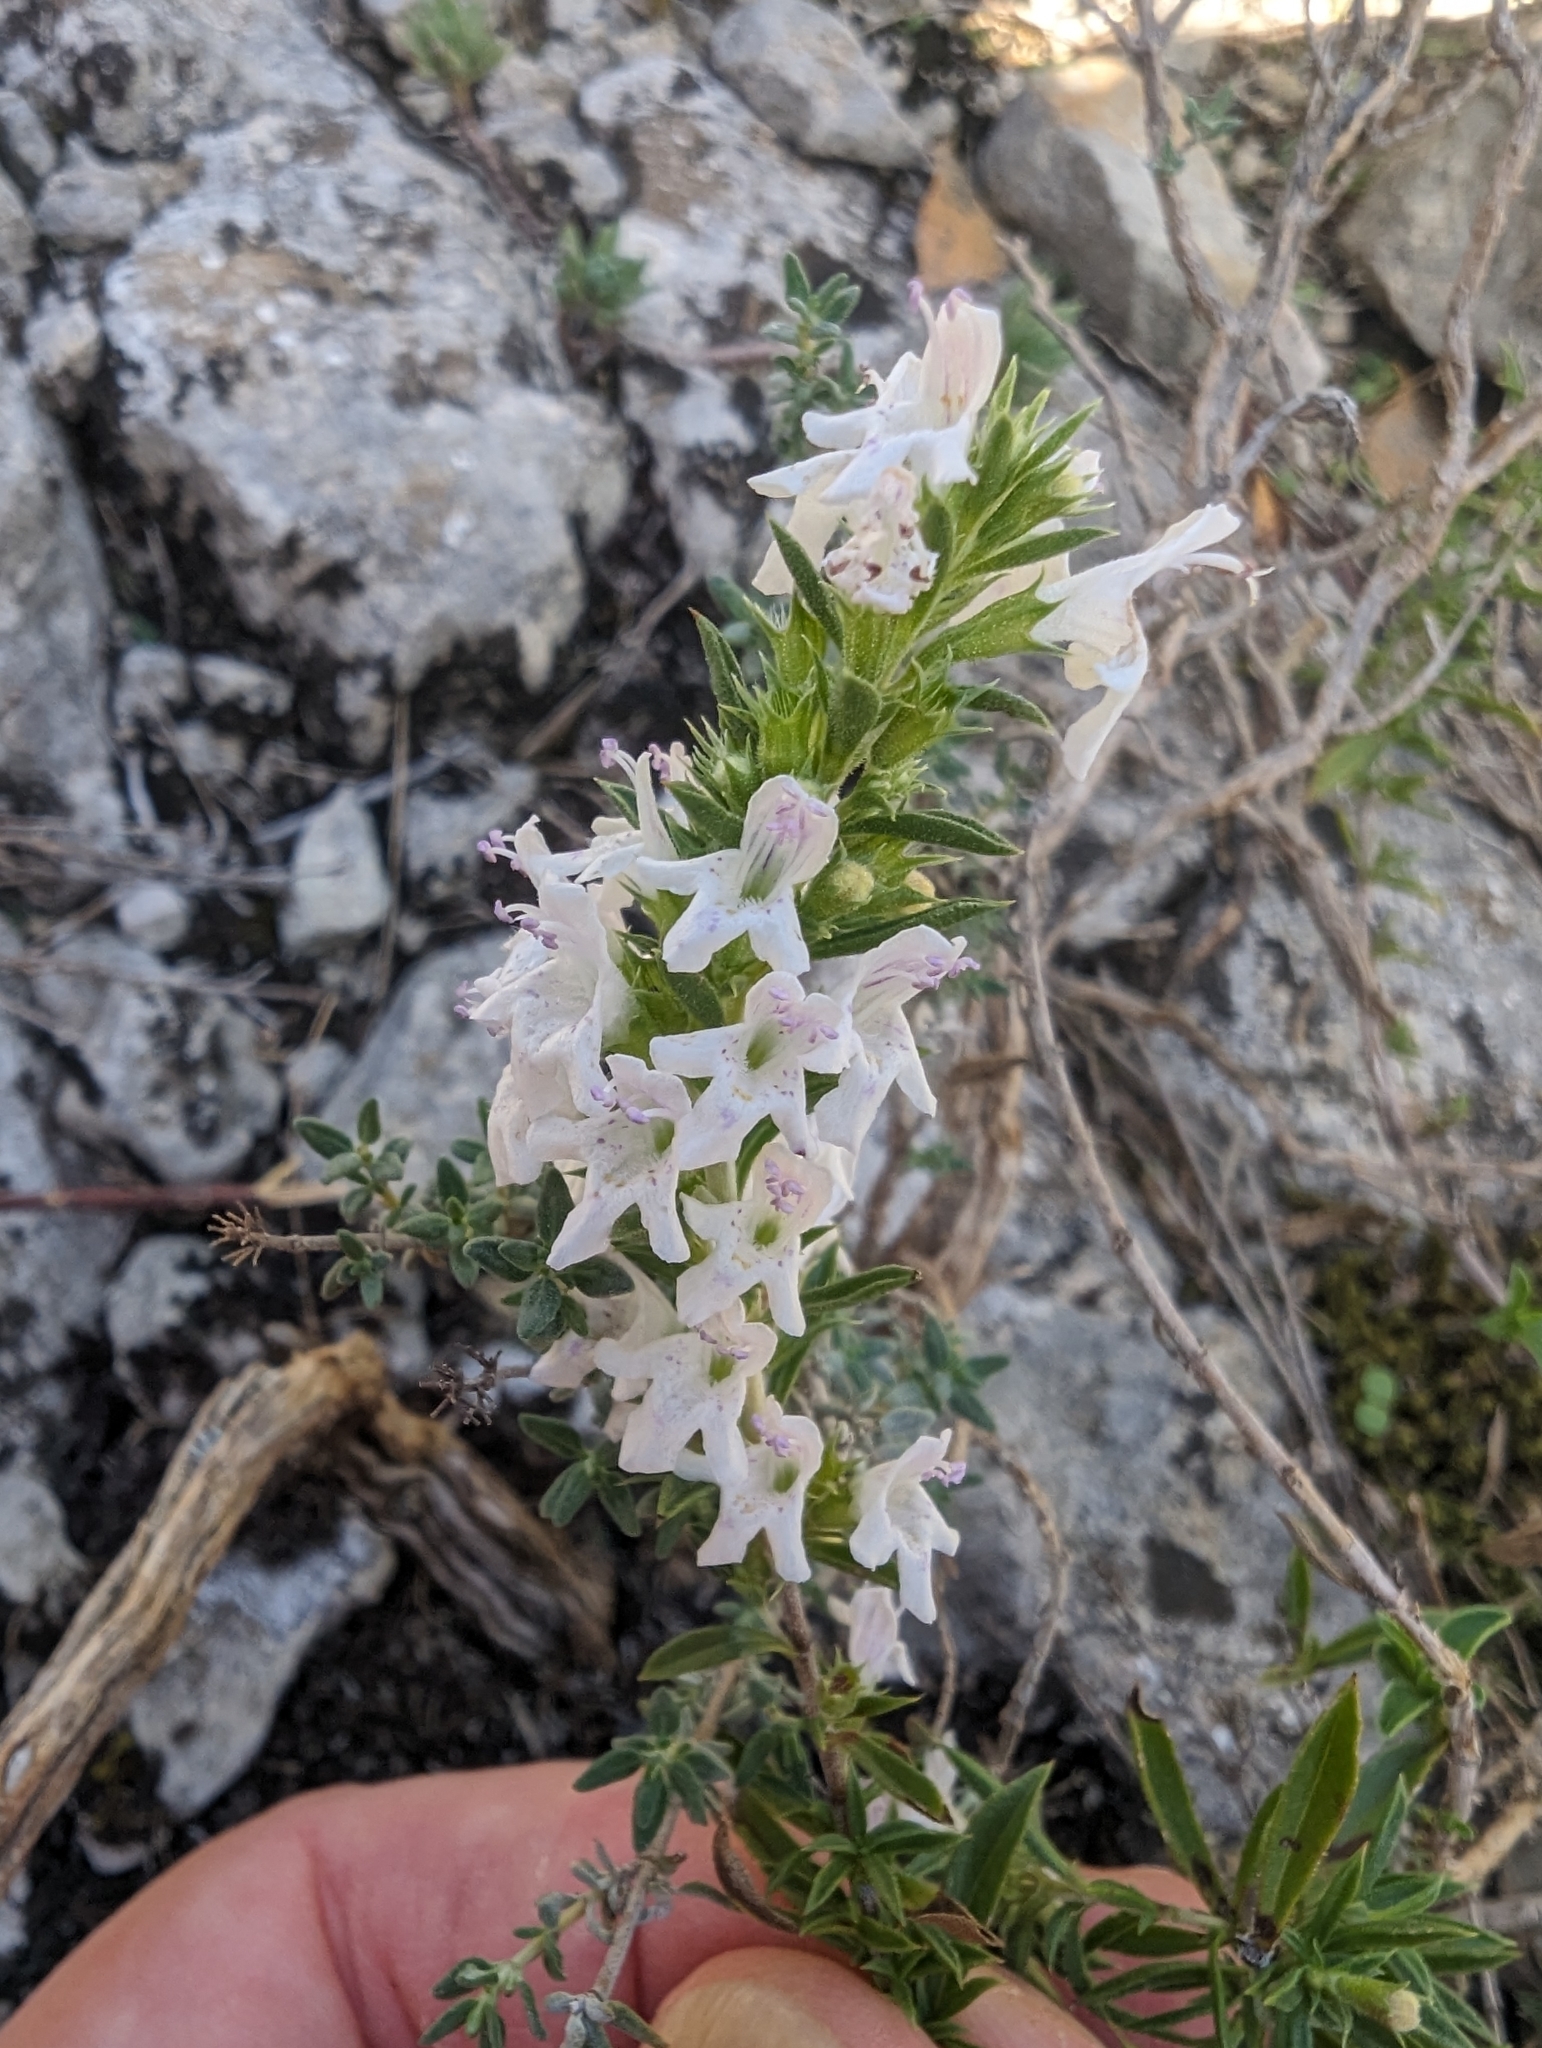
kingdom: Plantae
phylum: Tracheophyta
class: Magnoliopsida
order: Lamiales
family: Lamiaceae
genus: Satureja
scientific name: Satureja montana
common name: Winter savory
